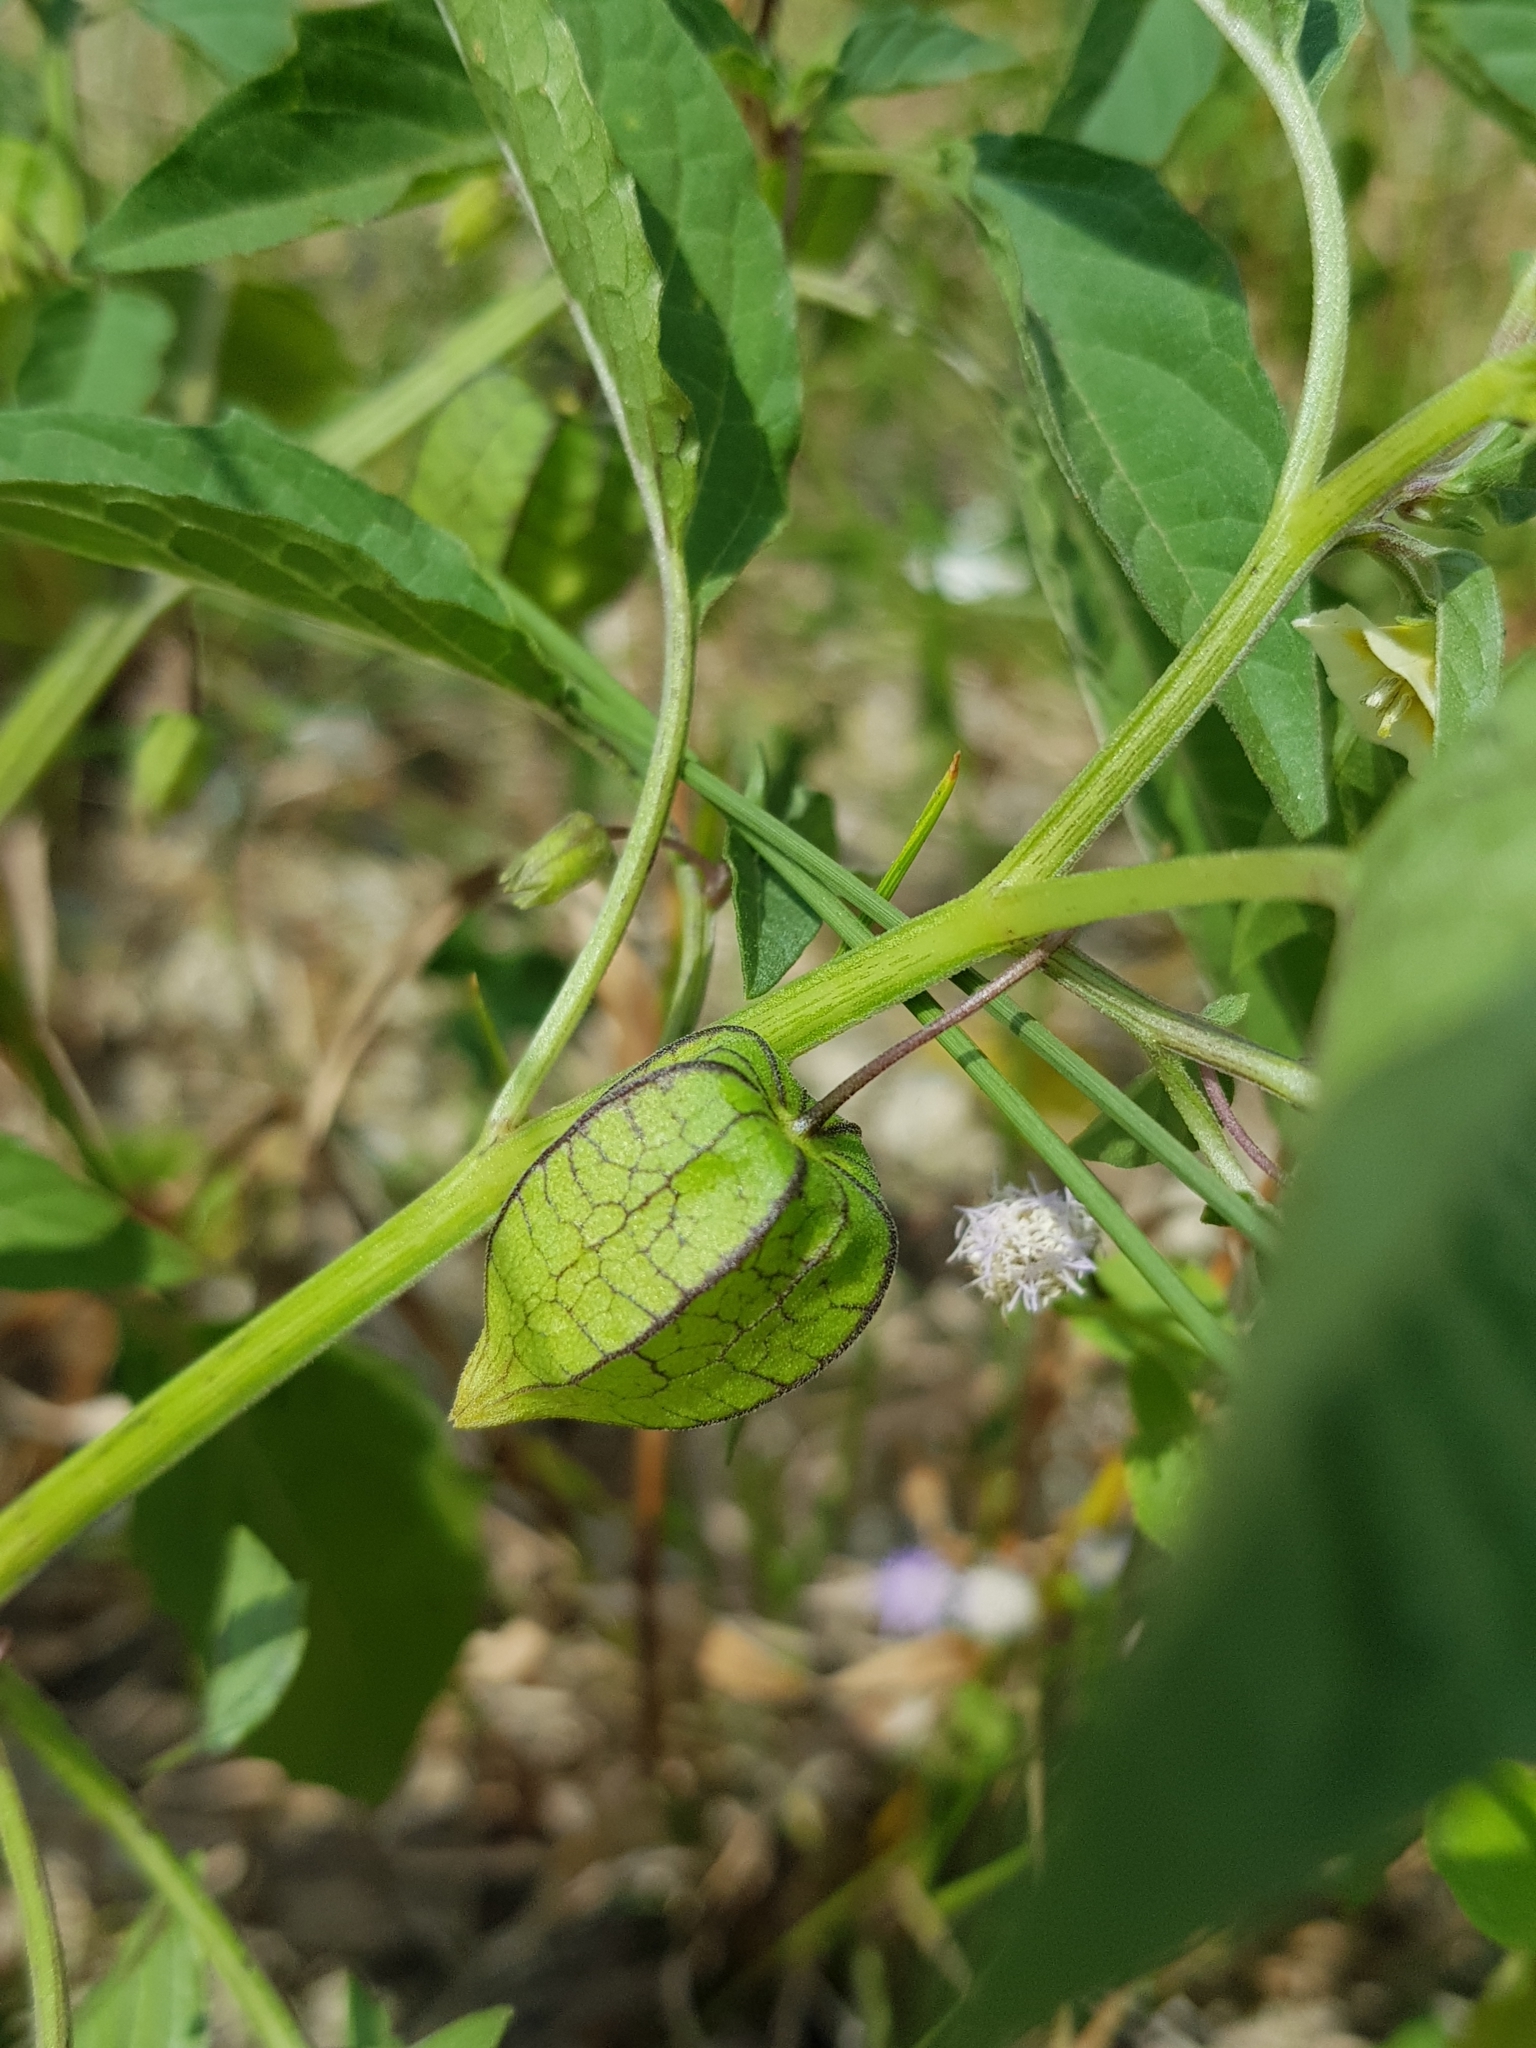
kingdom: Plantae
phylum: Tracheophyta
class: Magnoliopsida
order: Solanales
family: Solanaceae
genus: Physalis
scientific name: Physalis angulata
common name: Angular winter-cherry
